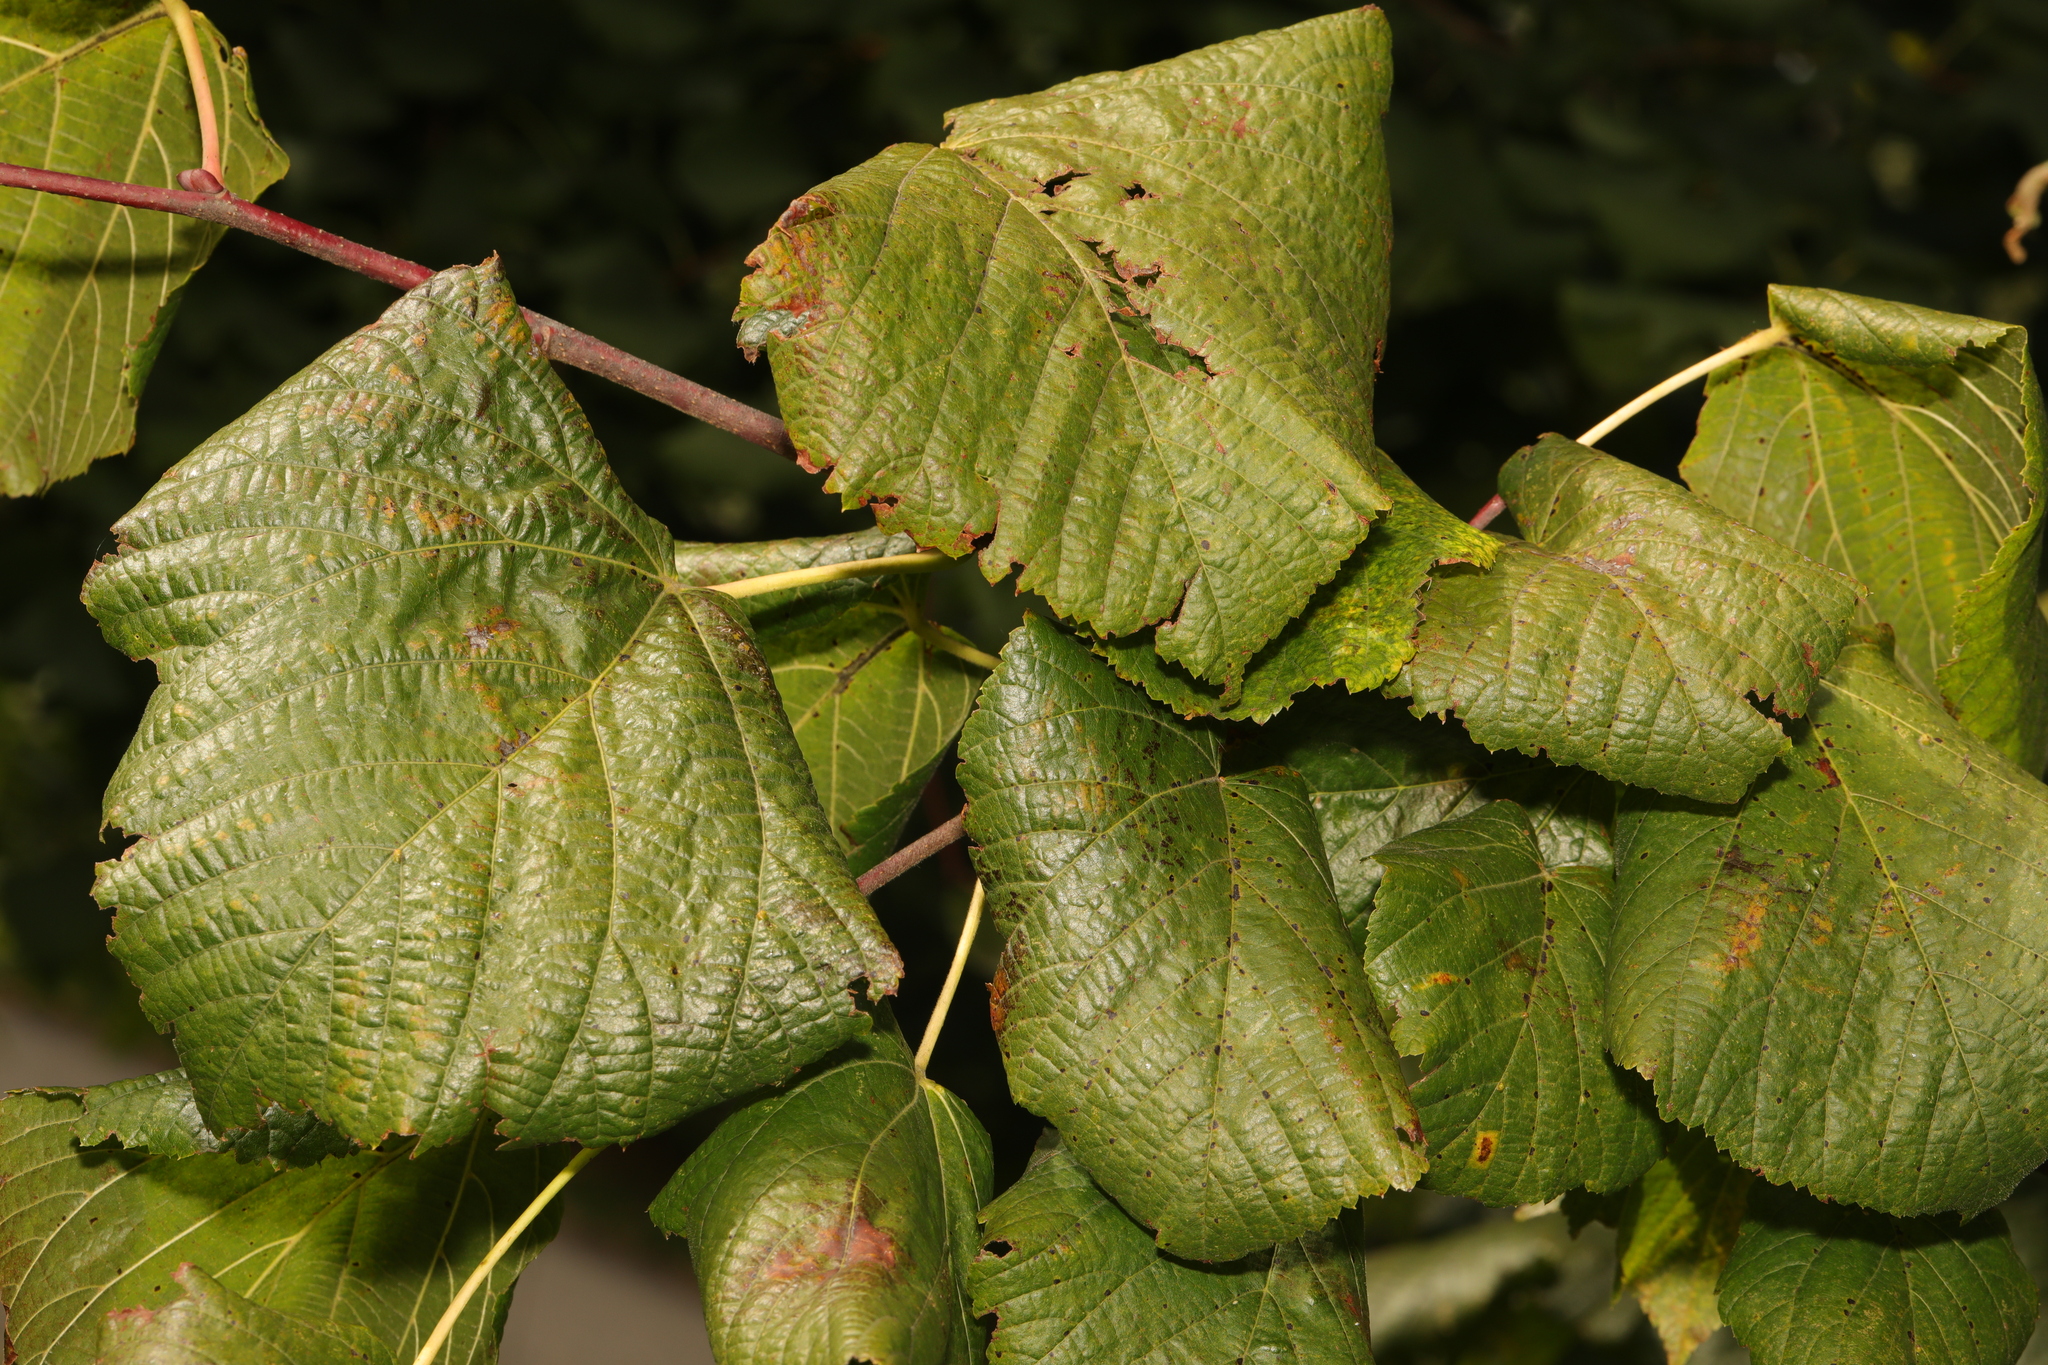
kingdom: Plantae
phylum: Tracheophyta
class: Magnoliopsida
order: Malvales
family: Malvaceae
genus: Tilia
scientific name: Tilia europaea
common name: European linden
